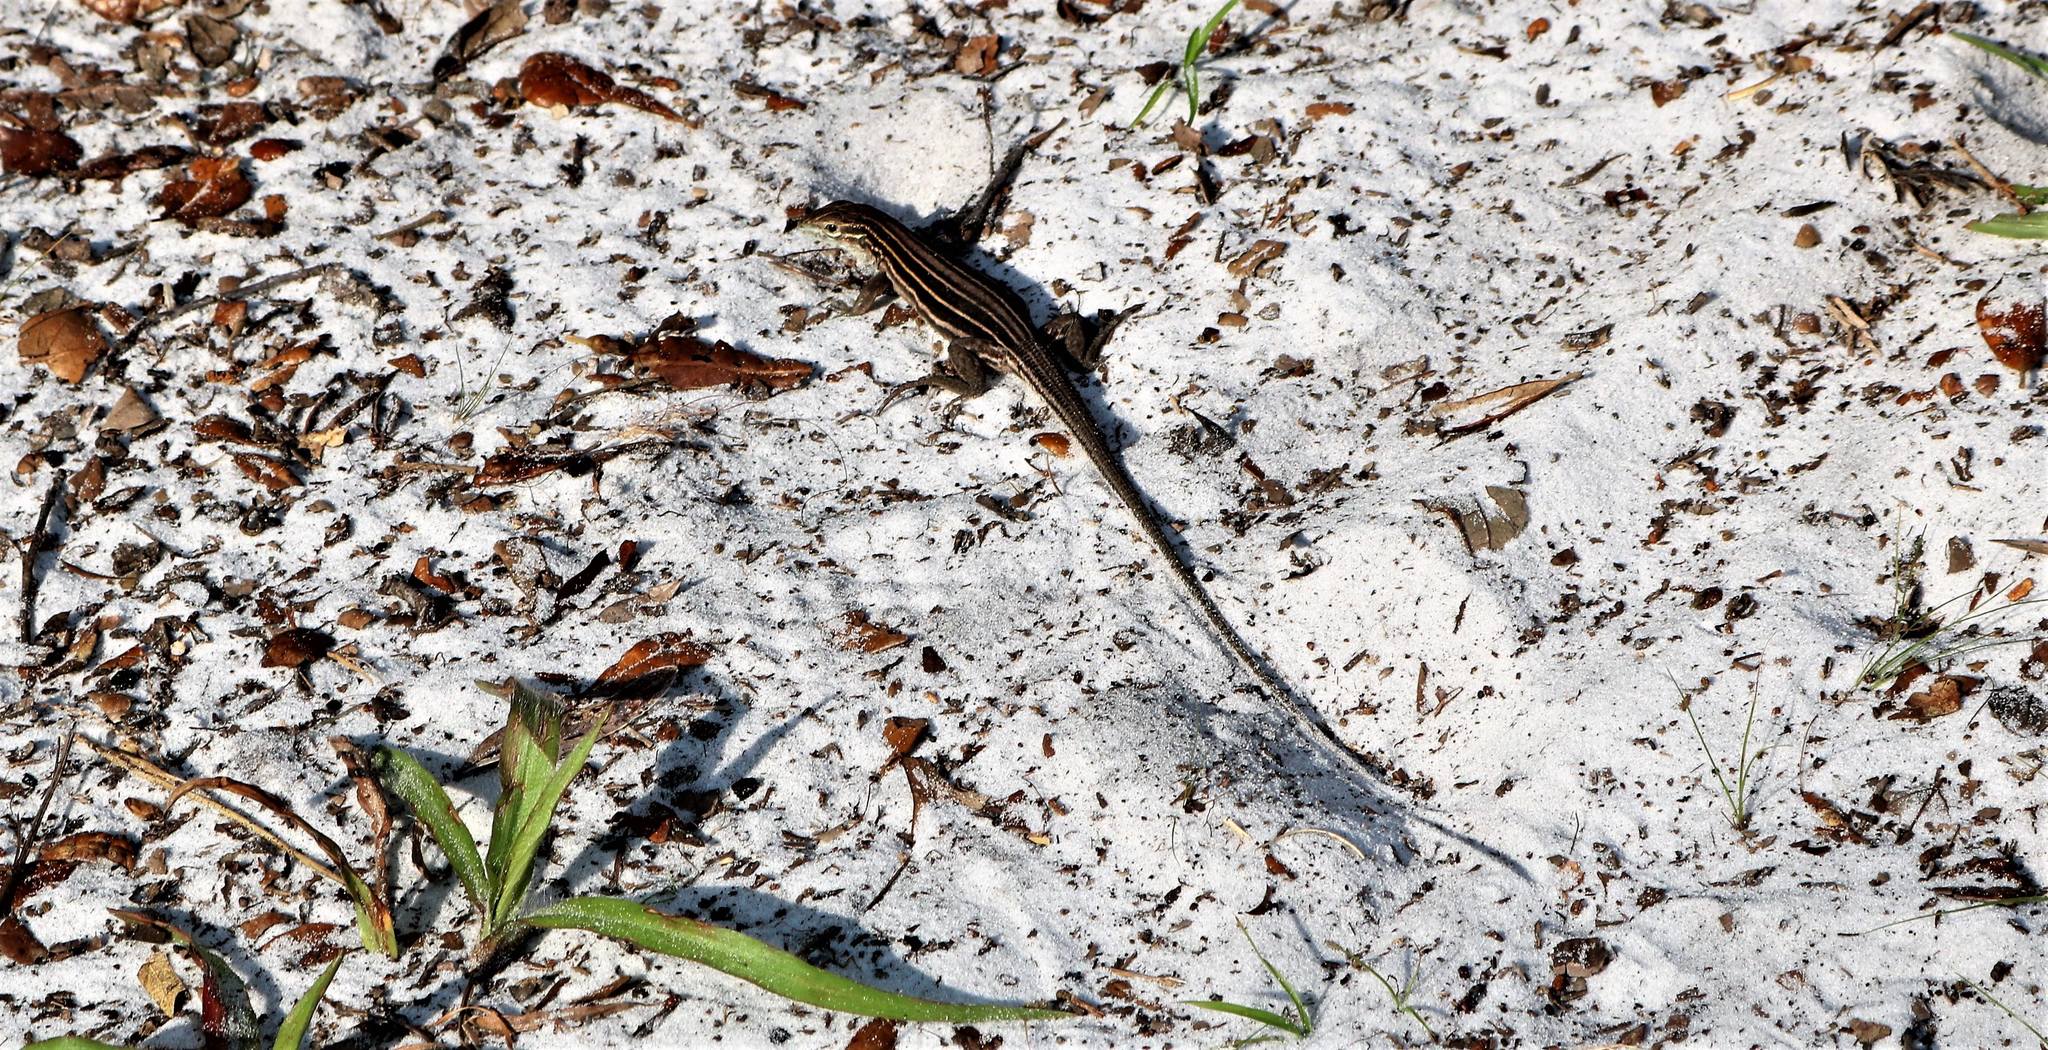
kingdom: Animalia
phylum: Chordata
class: Squamata
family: Teiidae
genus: Aspidoscelis
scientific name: Aspidoscelis sexlineatus
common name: Six-lined racerunner
